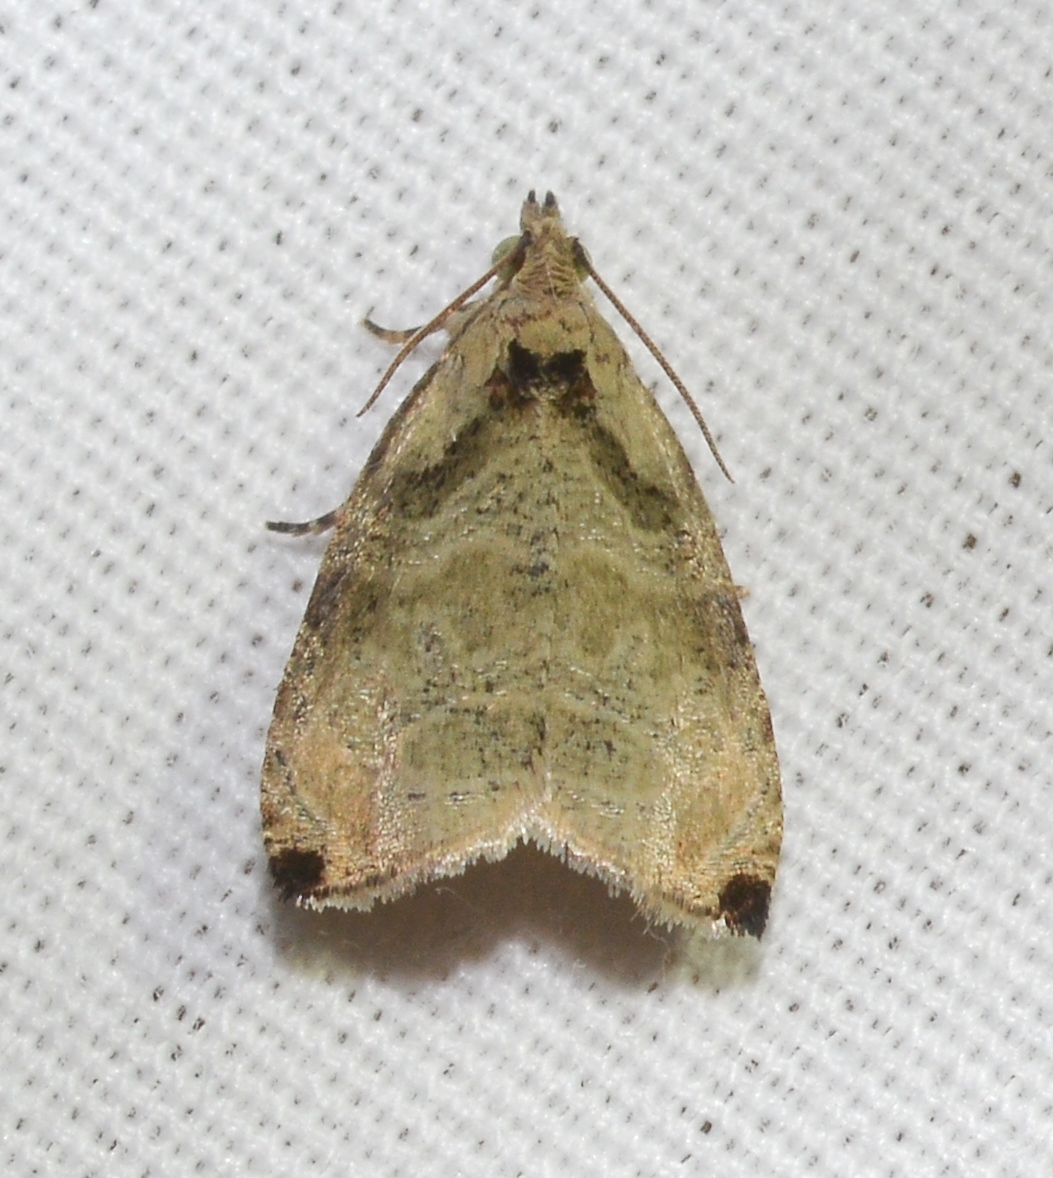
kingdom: Animalia
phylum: Arthropoda
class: Insecta
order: Lepidoptera
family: Tortricidae
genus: Olethreutes
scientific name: Olethreutes exoletum
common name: Wretched olethreutes moth
